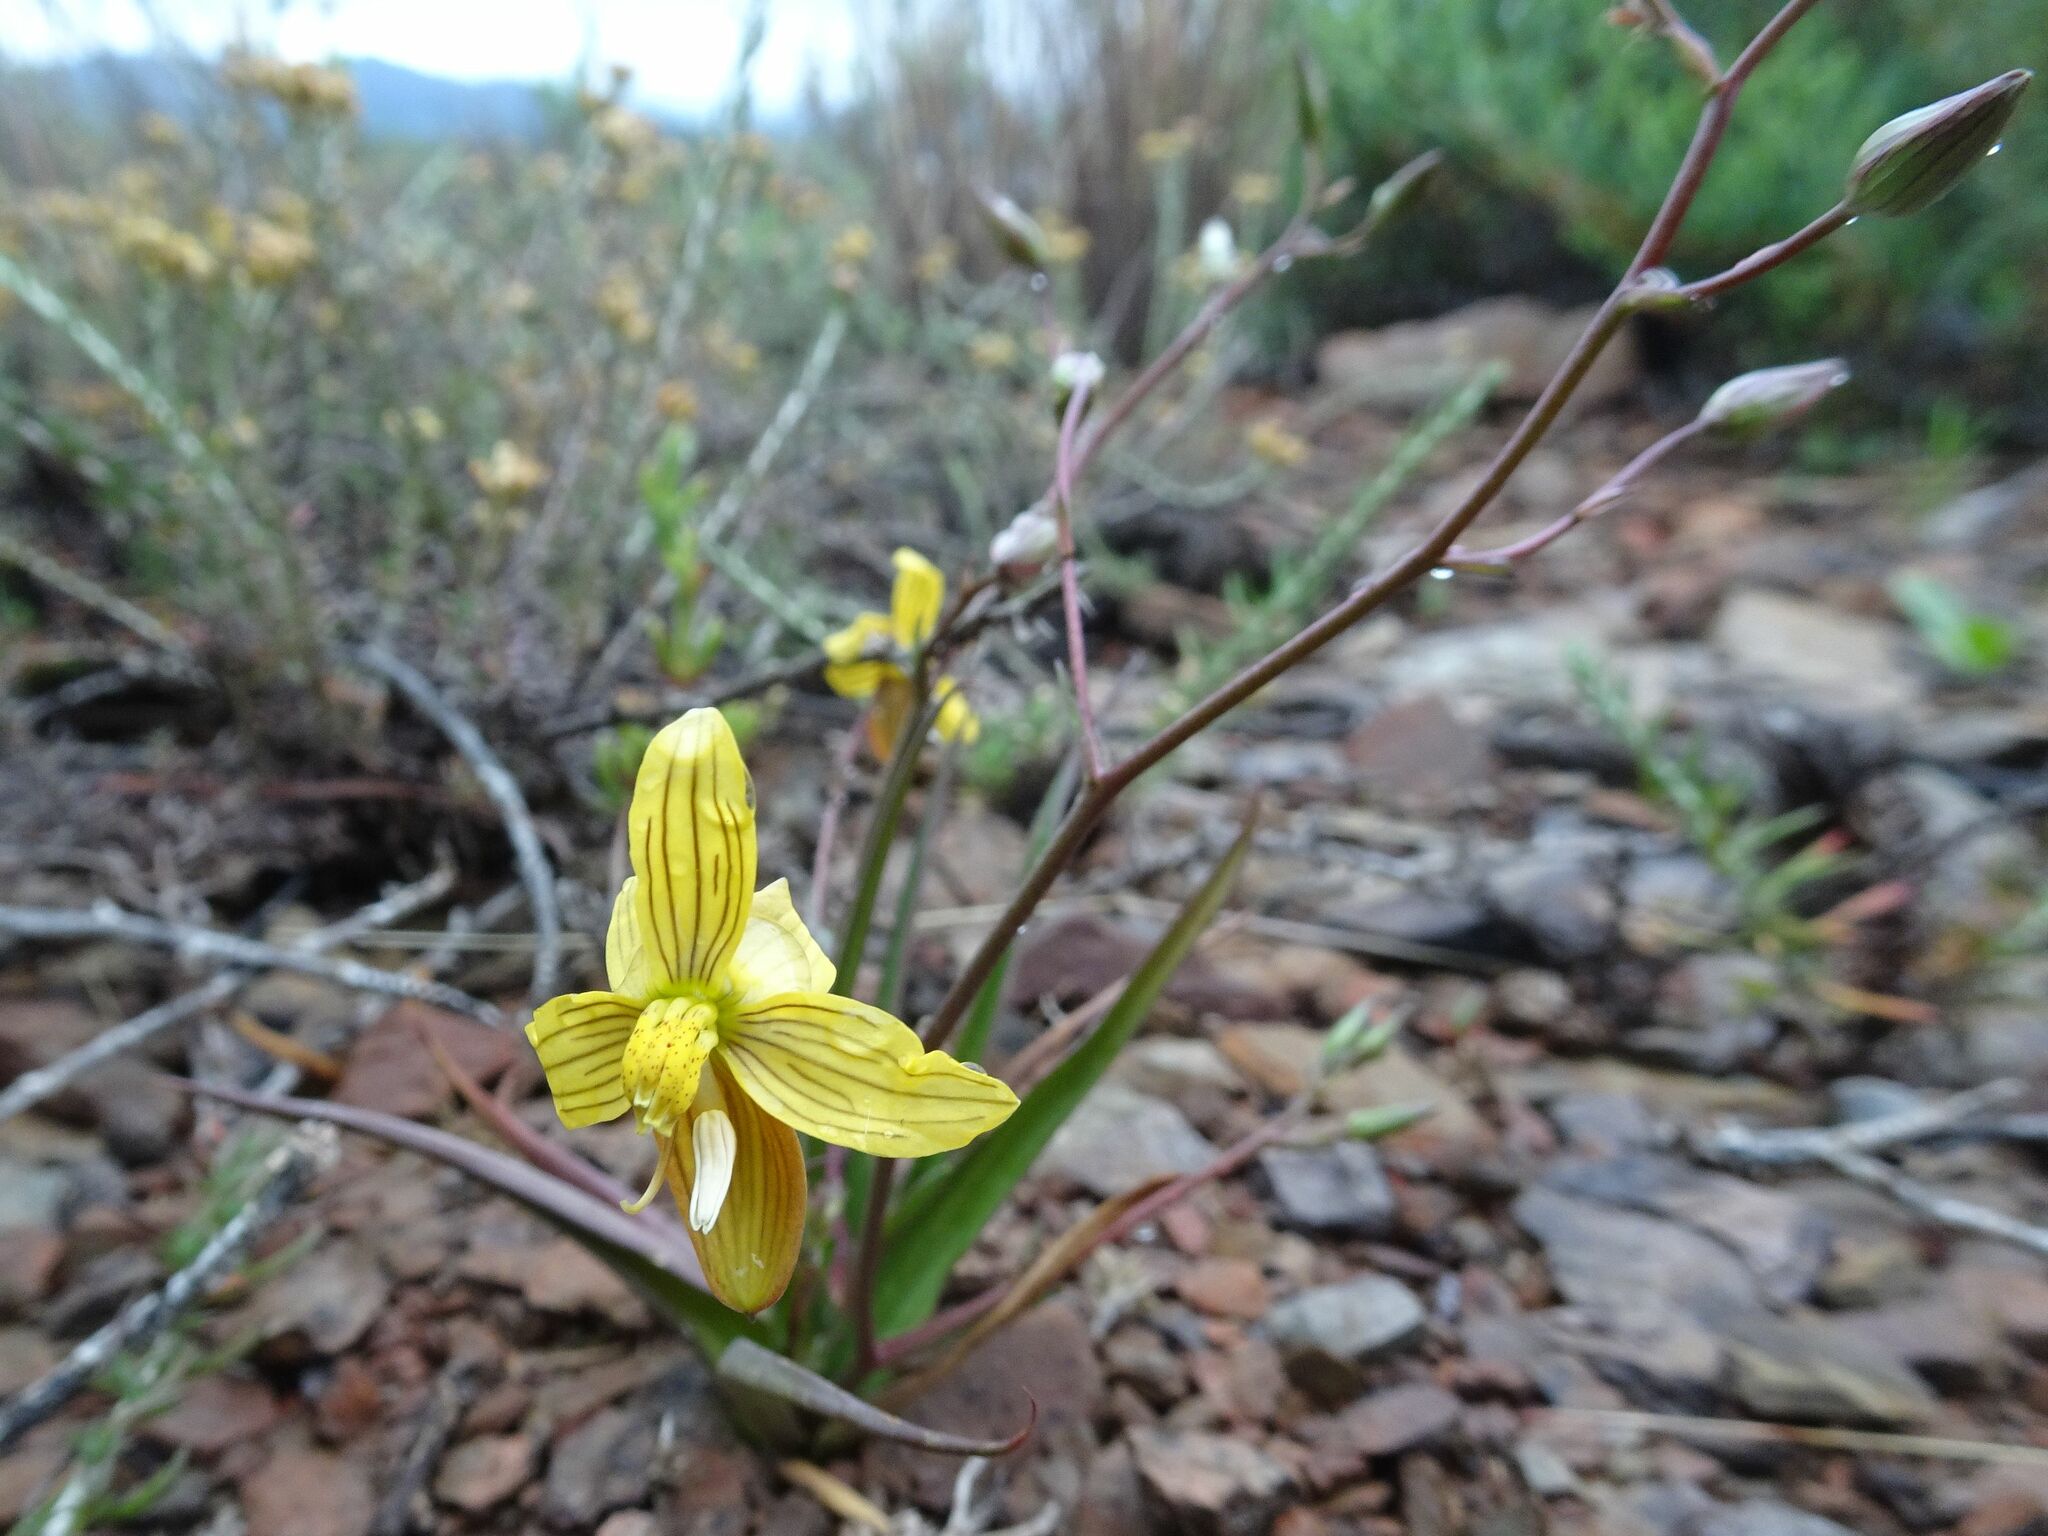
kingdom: Plantae
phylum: Tracheophyta
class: Liliopsida
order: Asparagales
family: Tecophilaeaceae
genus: Cyanella
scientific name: Cyanella lutea
